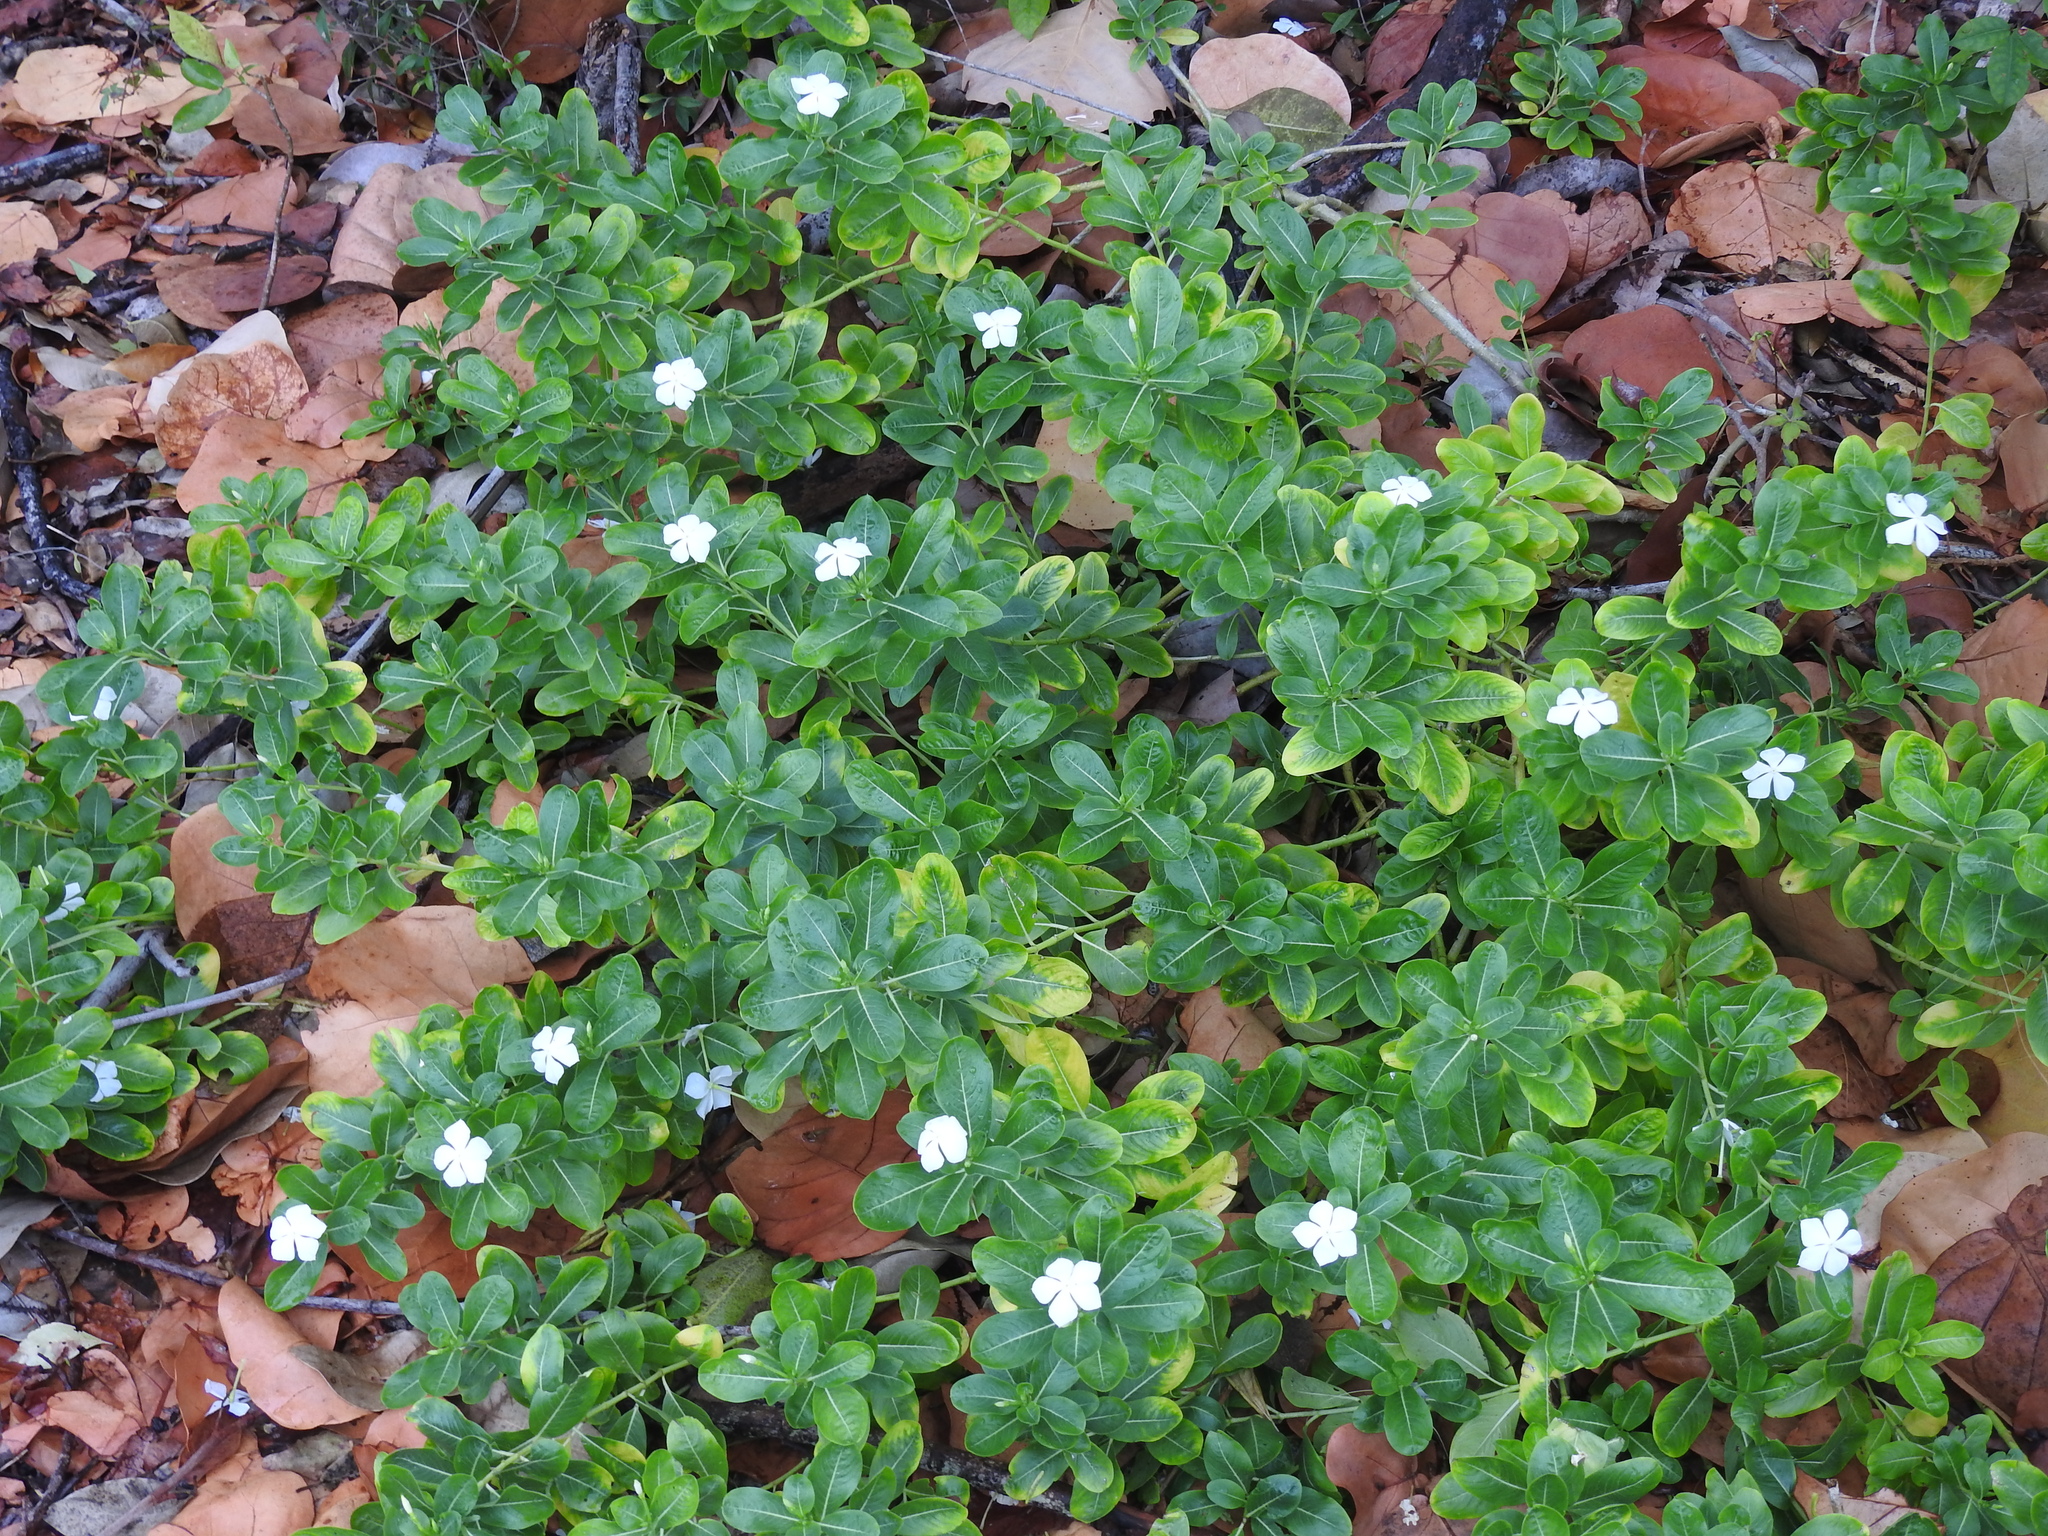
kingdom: Plantae
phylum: Tracheophyta
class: Magnoliopsida
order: Gentianales
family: Apocynaceae
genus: Catharanthus
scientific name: Catharanthus roseus
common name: Madagascar periwinkle
